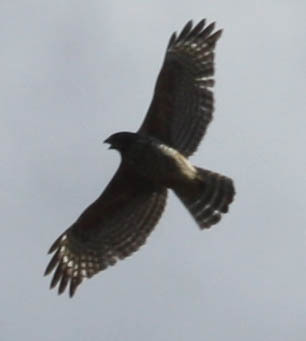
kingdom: Animalia
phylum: Chordata
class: Aves
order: Accipitriformes
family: Accipitridae
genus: Buteo
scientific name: Buteo lineatus
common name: Red-shouldered hawk
